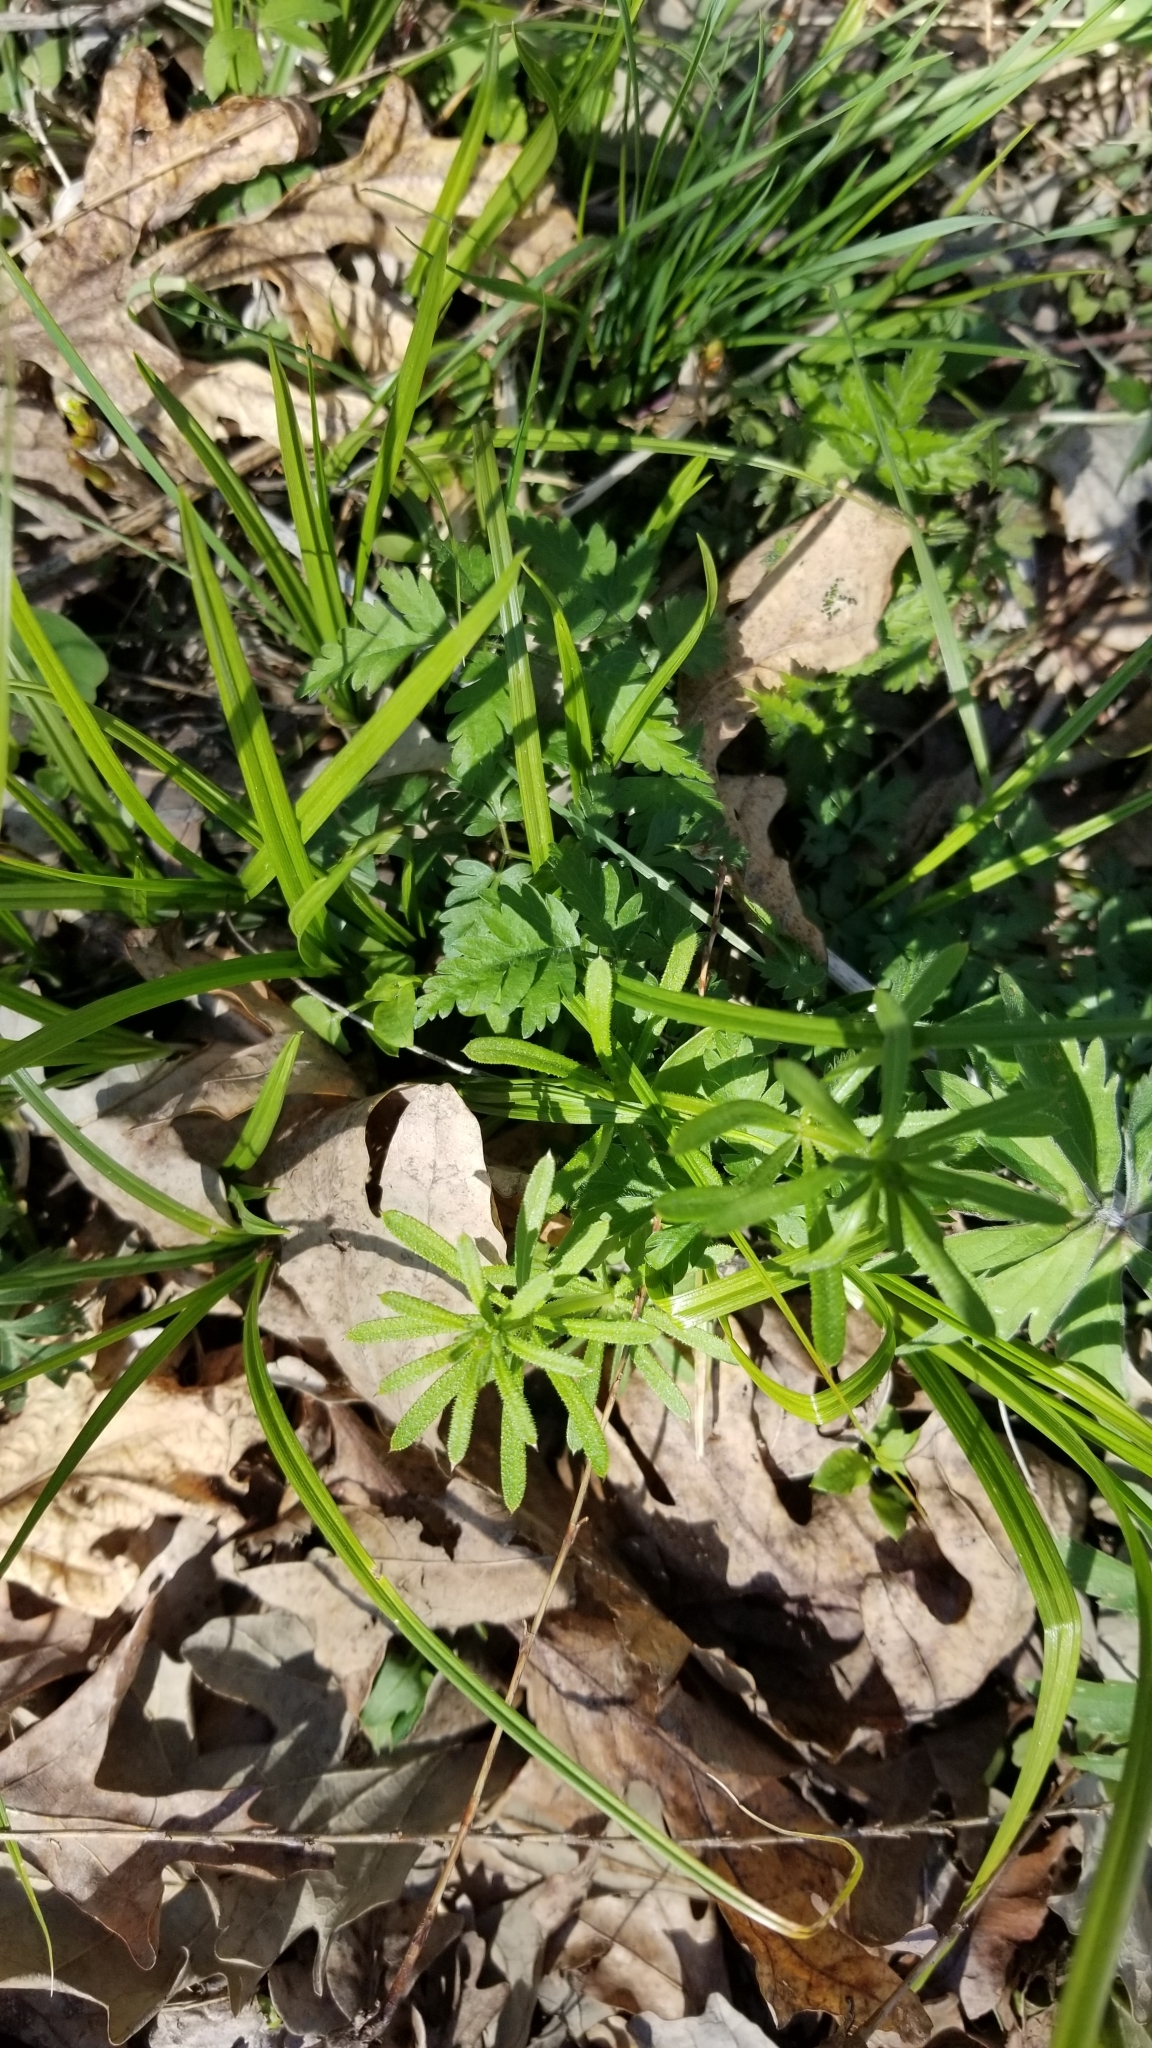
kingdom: Plantae
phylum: Tracheophyta
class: Magnoliopsida
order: Gentianales
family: Rubiaceae
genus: Galium
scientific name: Galium aparine
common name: Cleavers
